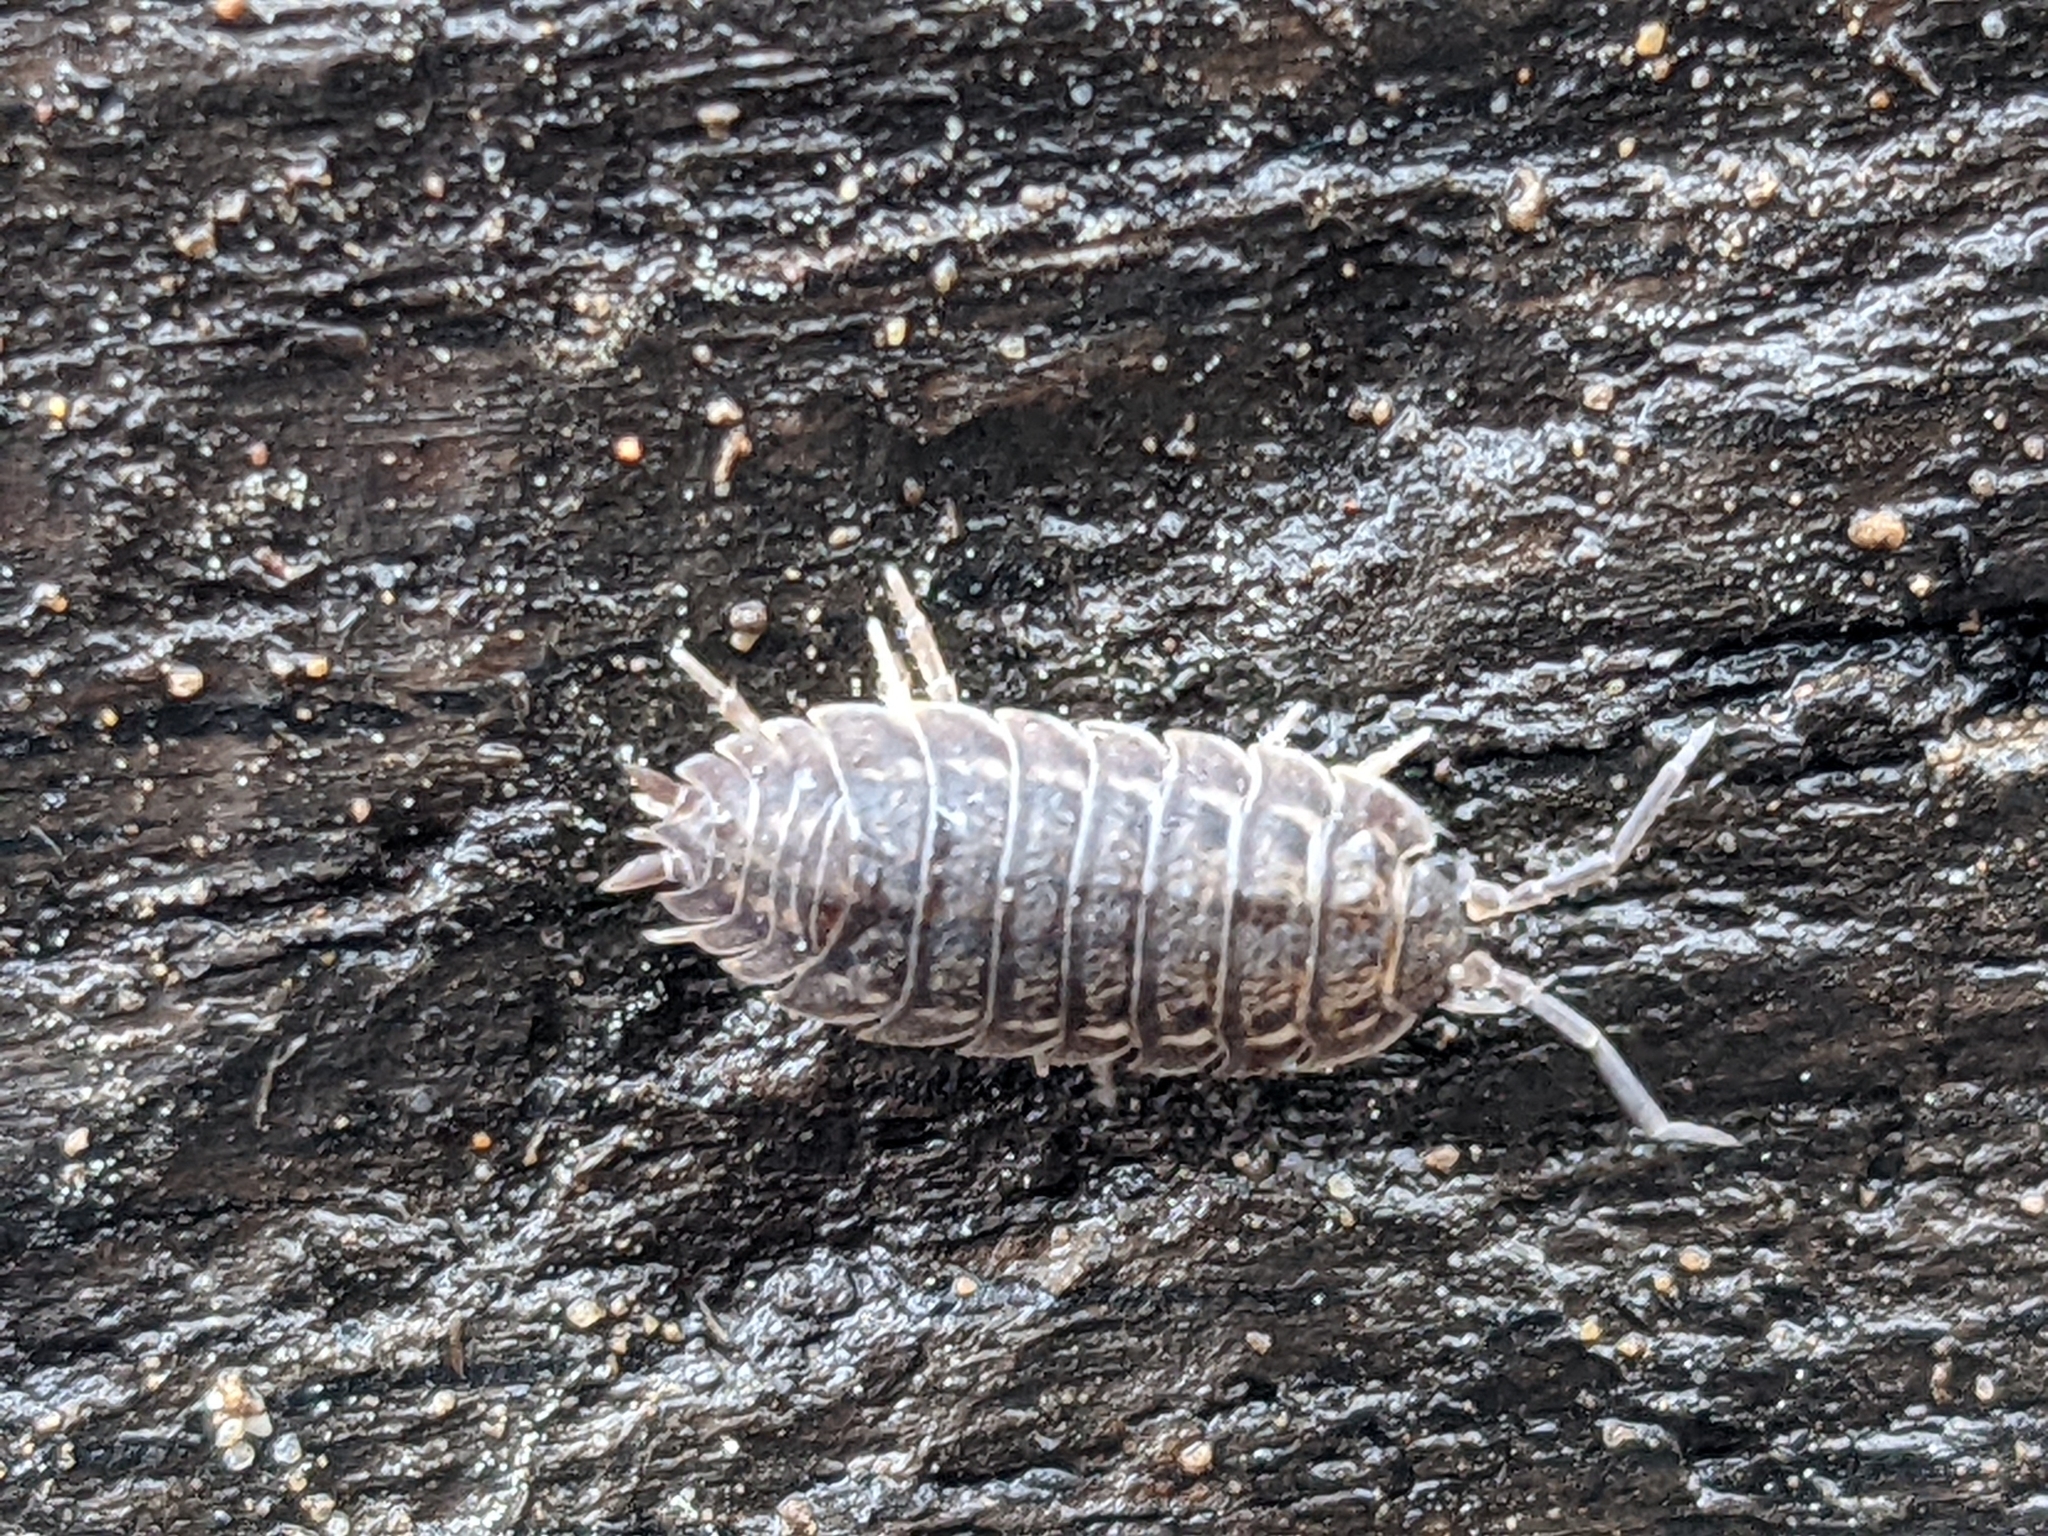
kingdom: Animalia
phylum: Arthropoda
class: Malacostraca
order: Isopoda
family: Trachelipodidae
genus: Trachelipus
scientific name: Trachelipus rathkii
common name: Isopod
